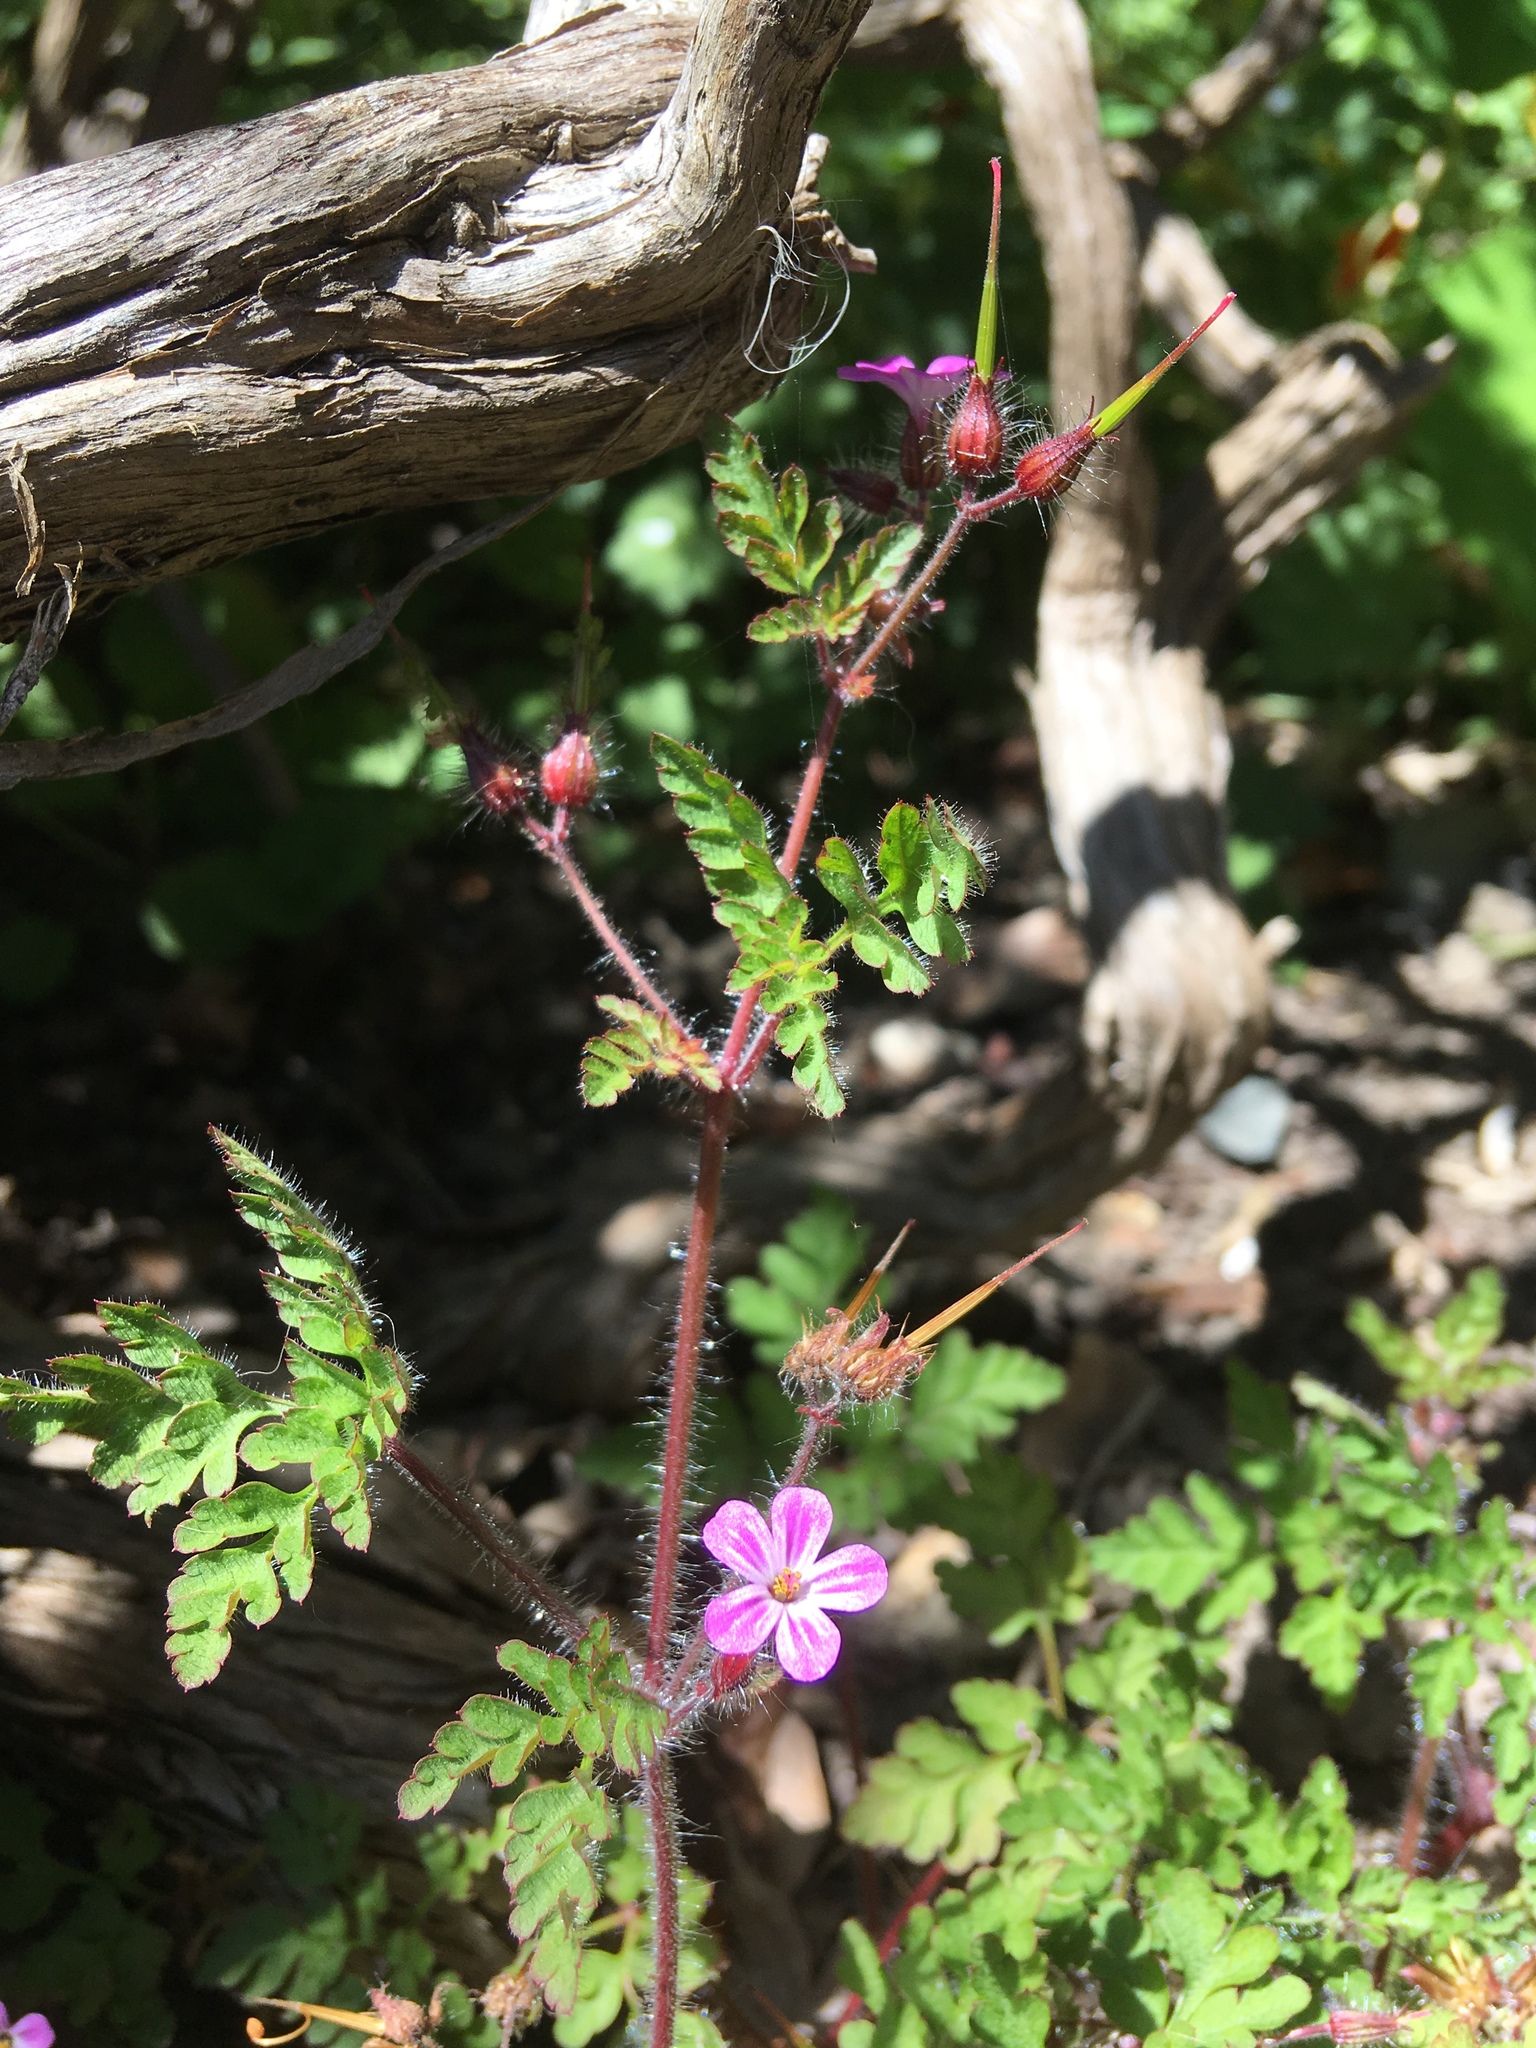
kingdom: Plantae
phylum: Tracheophyta
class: Magnoliopsida
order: Geraniales
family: Geraniaceae
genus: Geranium
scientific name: Geranium robertianum
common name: Herb-robert
